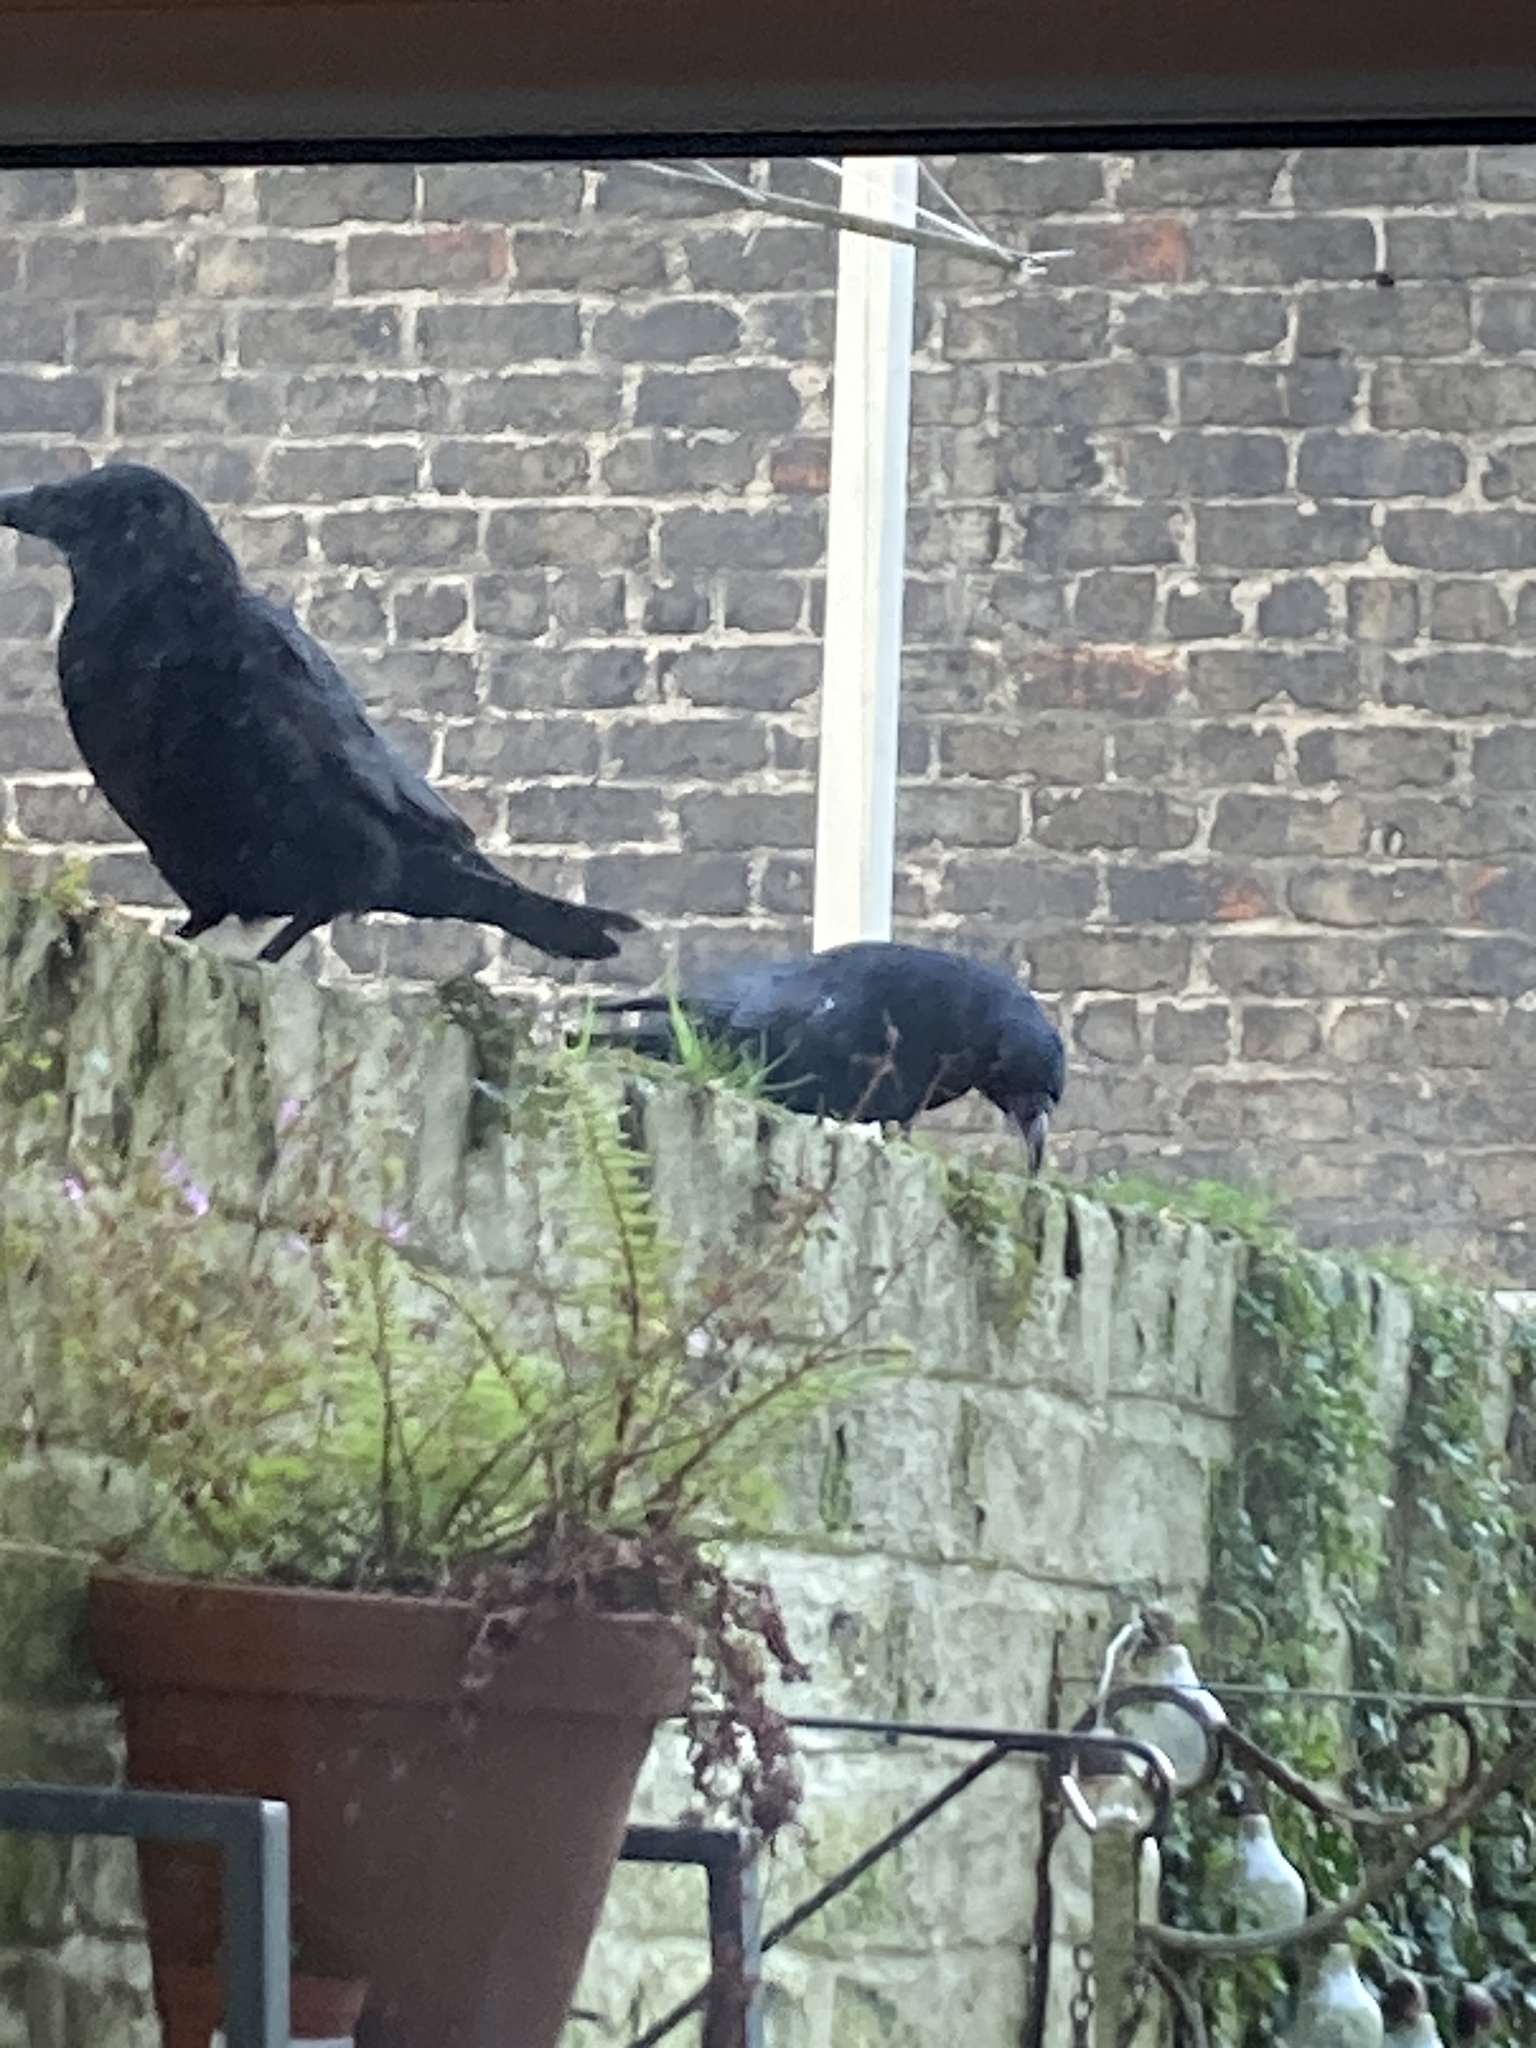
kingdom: Animalia
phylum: Chordata
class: Aves
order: Passeriformes
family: Corvidae
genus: Corvus
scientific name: Corvus corone
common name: Carrion crow
